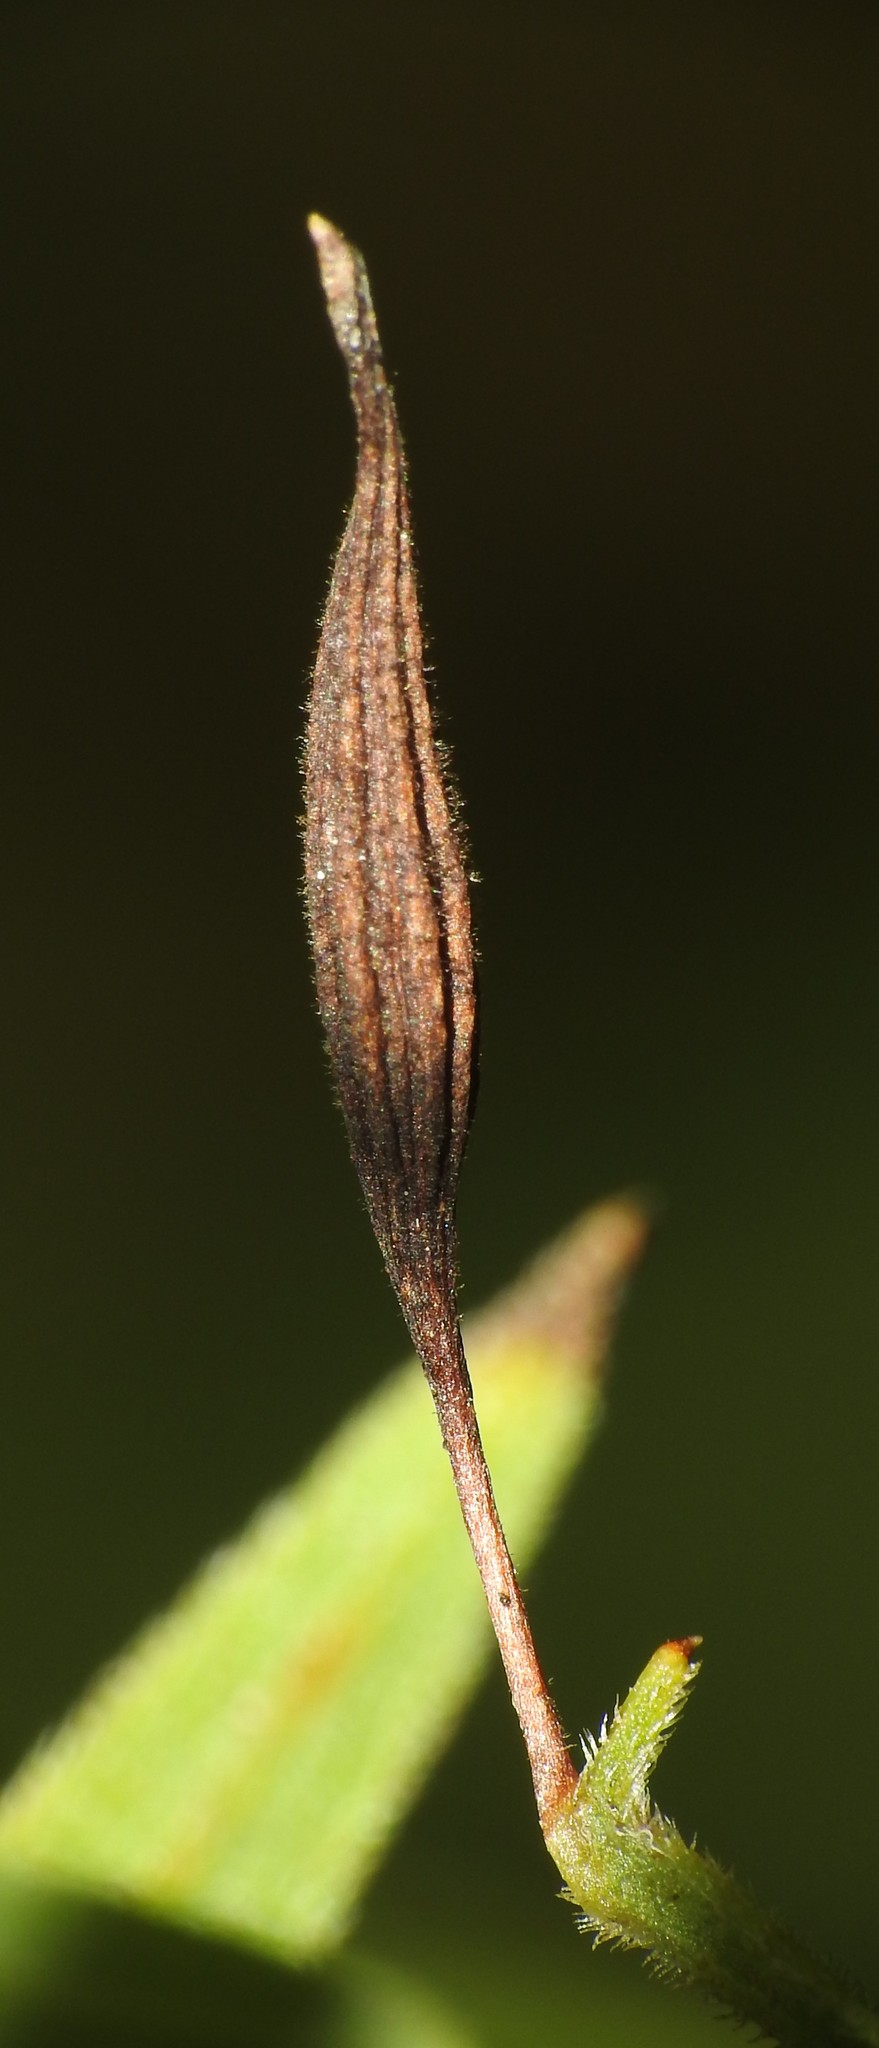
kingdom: Animalia
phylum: Arthropoda
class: Insecta
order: Diptera
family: Cecidomyiidae
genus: Rhopalomyia
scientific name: Rhopalomyia pedicellata
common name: Goldentop pedicellate gall midge
